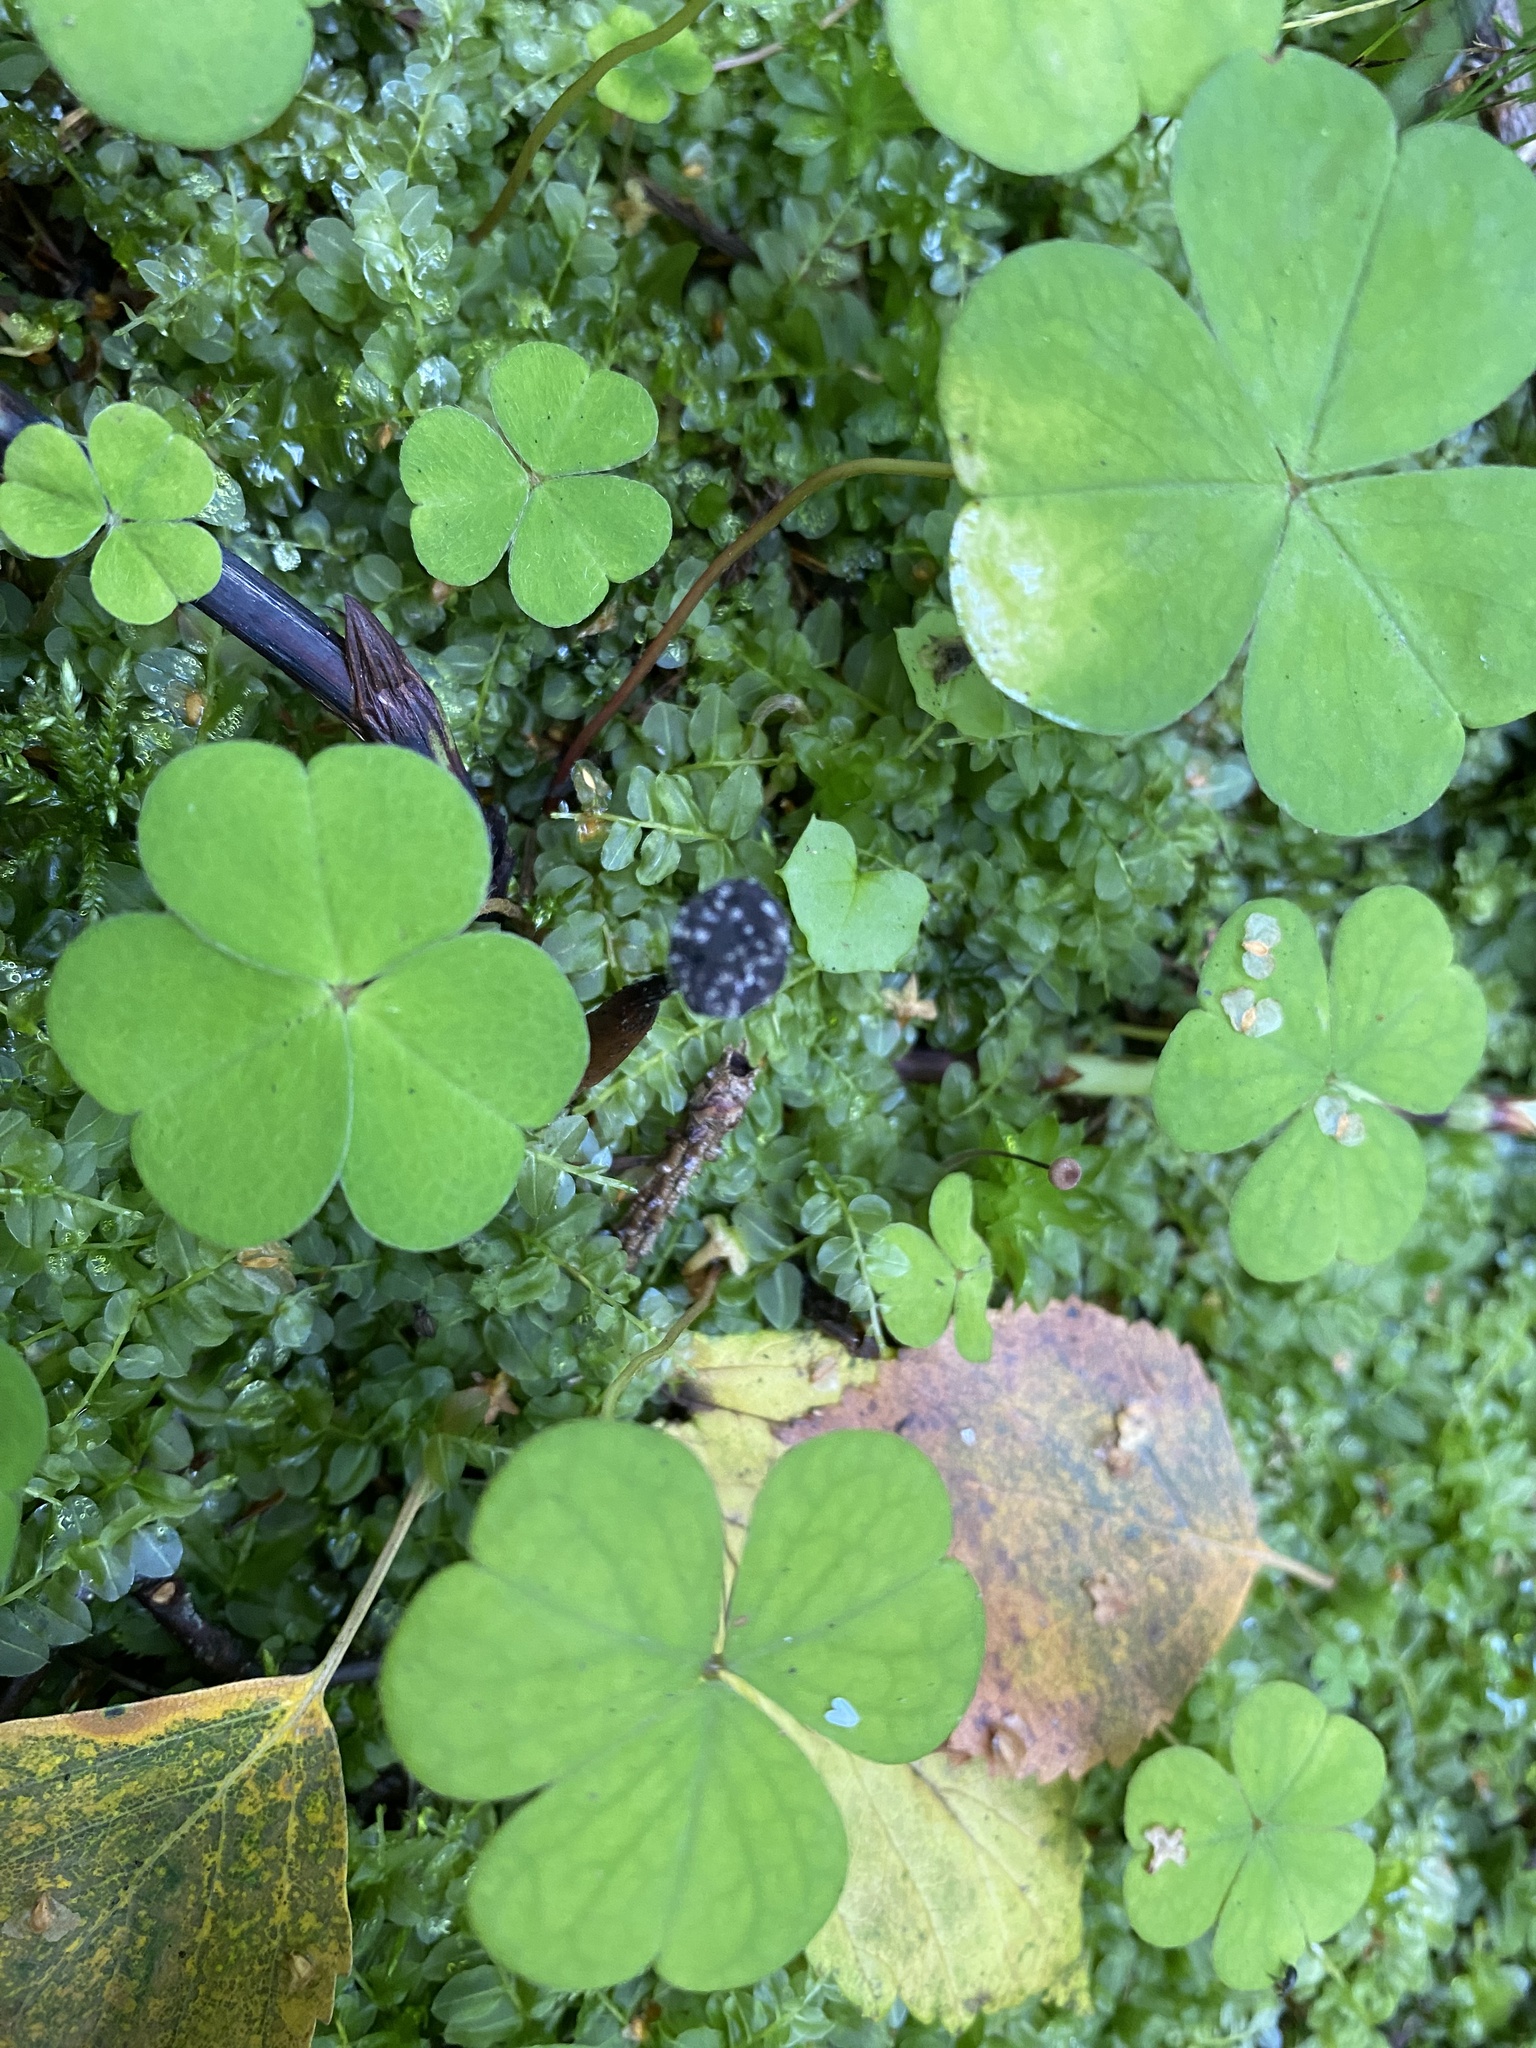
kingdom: Plantae
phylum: Tracheophyta
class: Magnoliopsida
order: Oxalidales
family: Oxalidaceae
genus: Oxalis
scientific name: Oxalis acetosella
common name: Wood-sorrel
